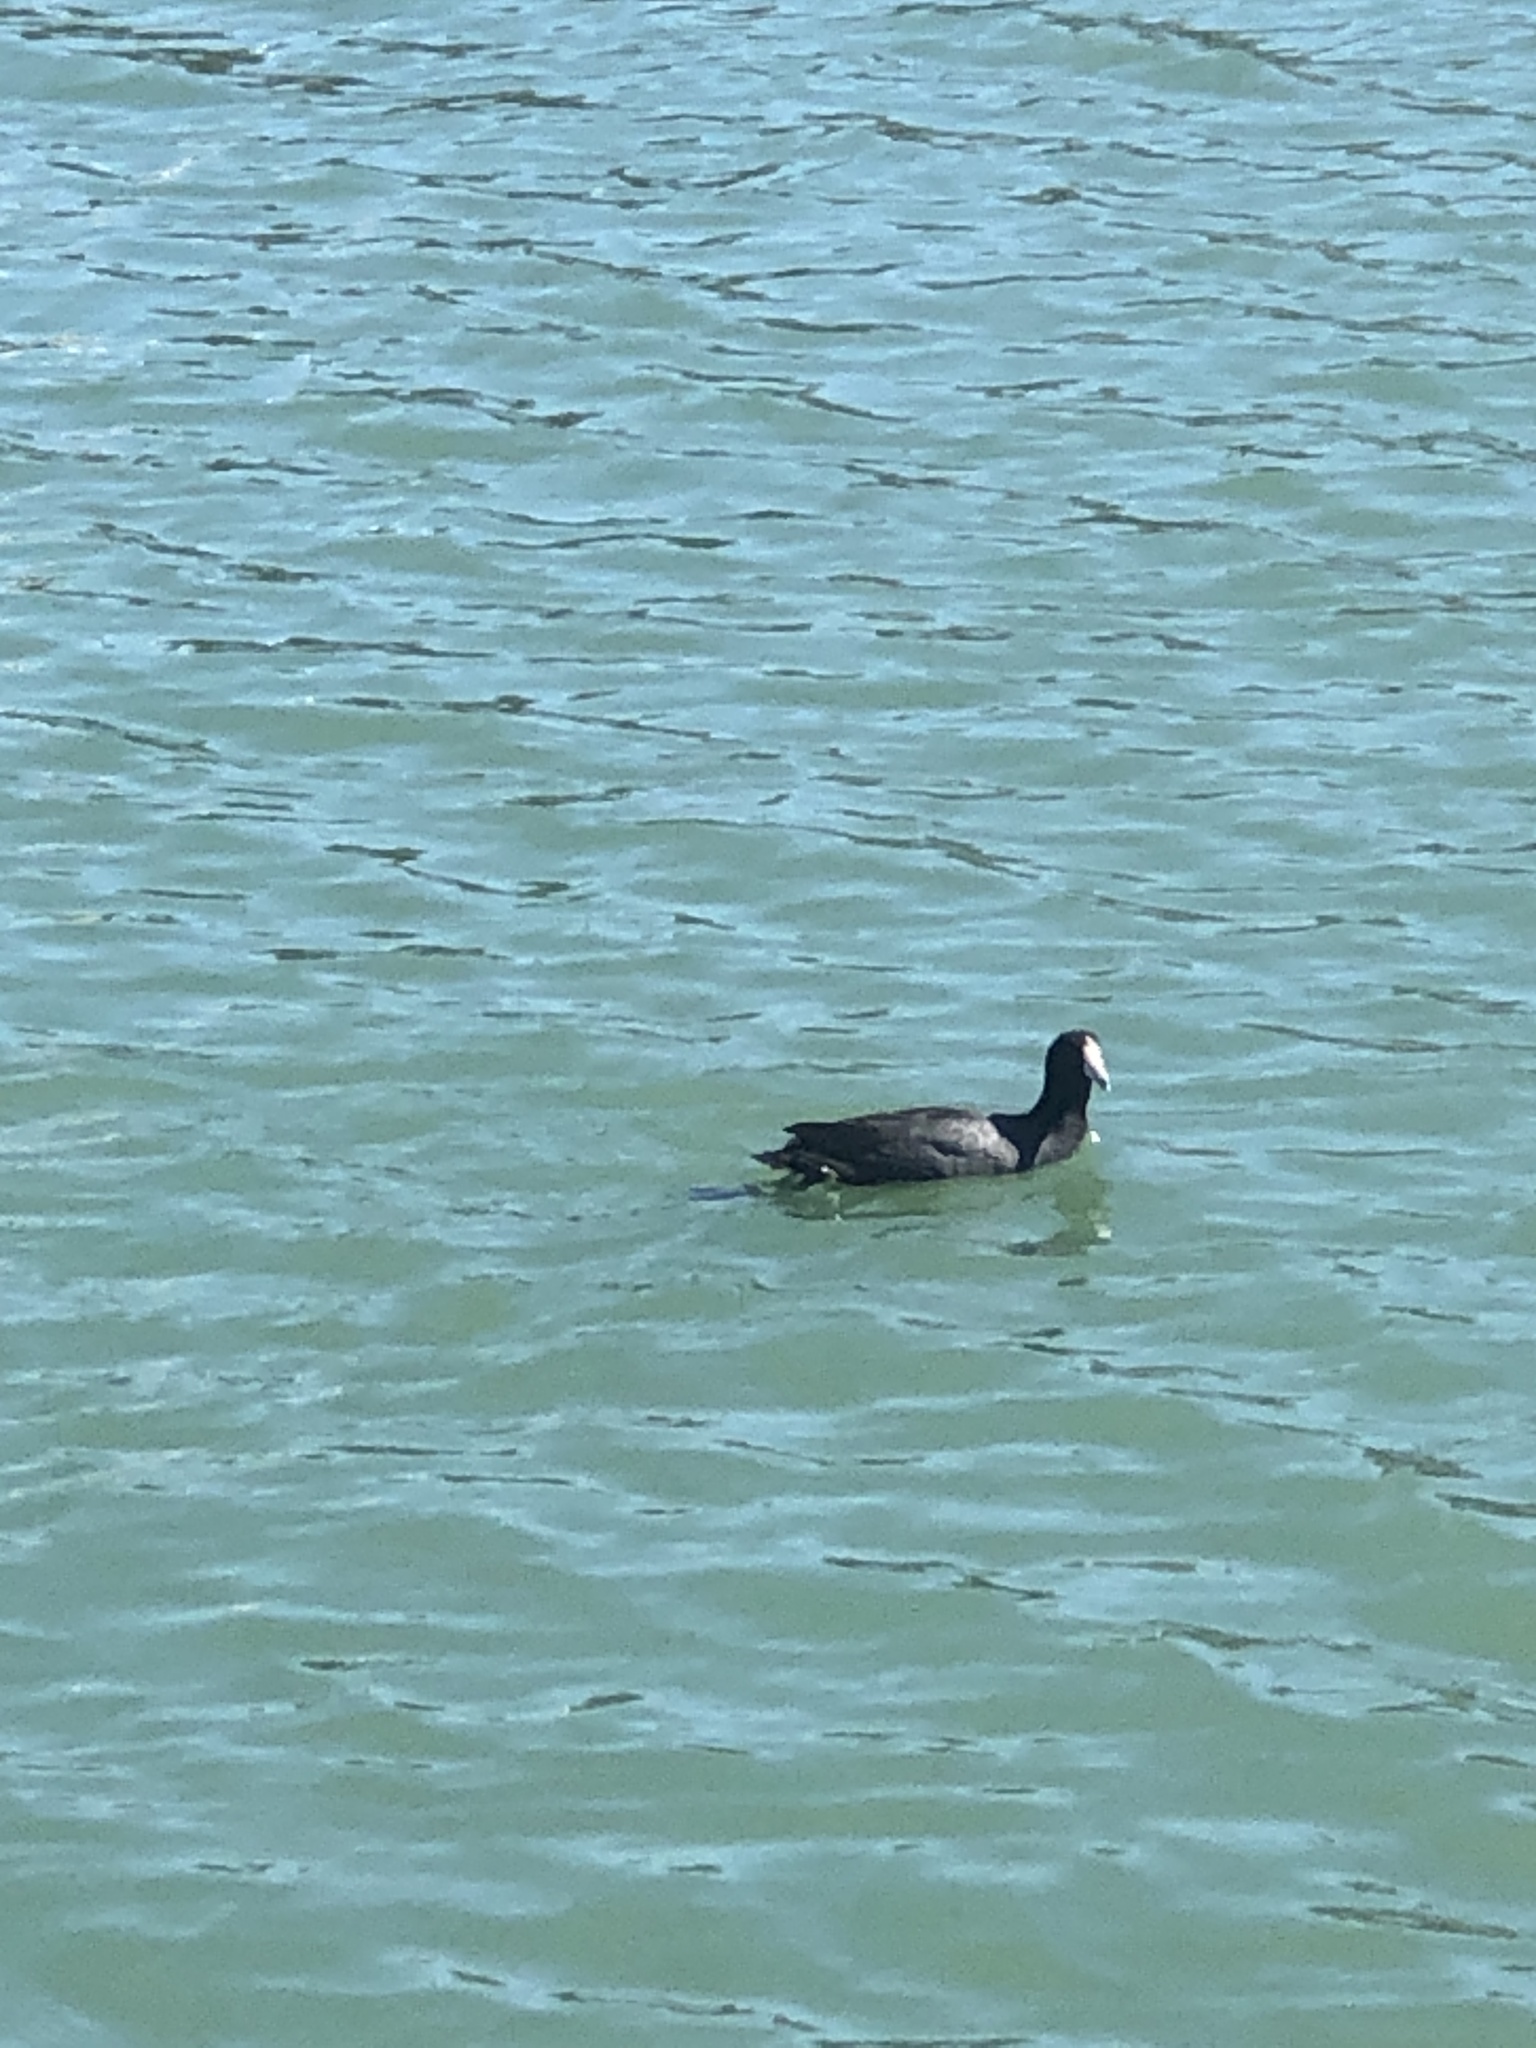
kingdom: Animalia
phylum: Chordata
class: Aves
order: Gruiformes
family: Rallidae
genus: Fulica
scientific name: Fulica americana
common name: American coot
